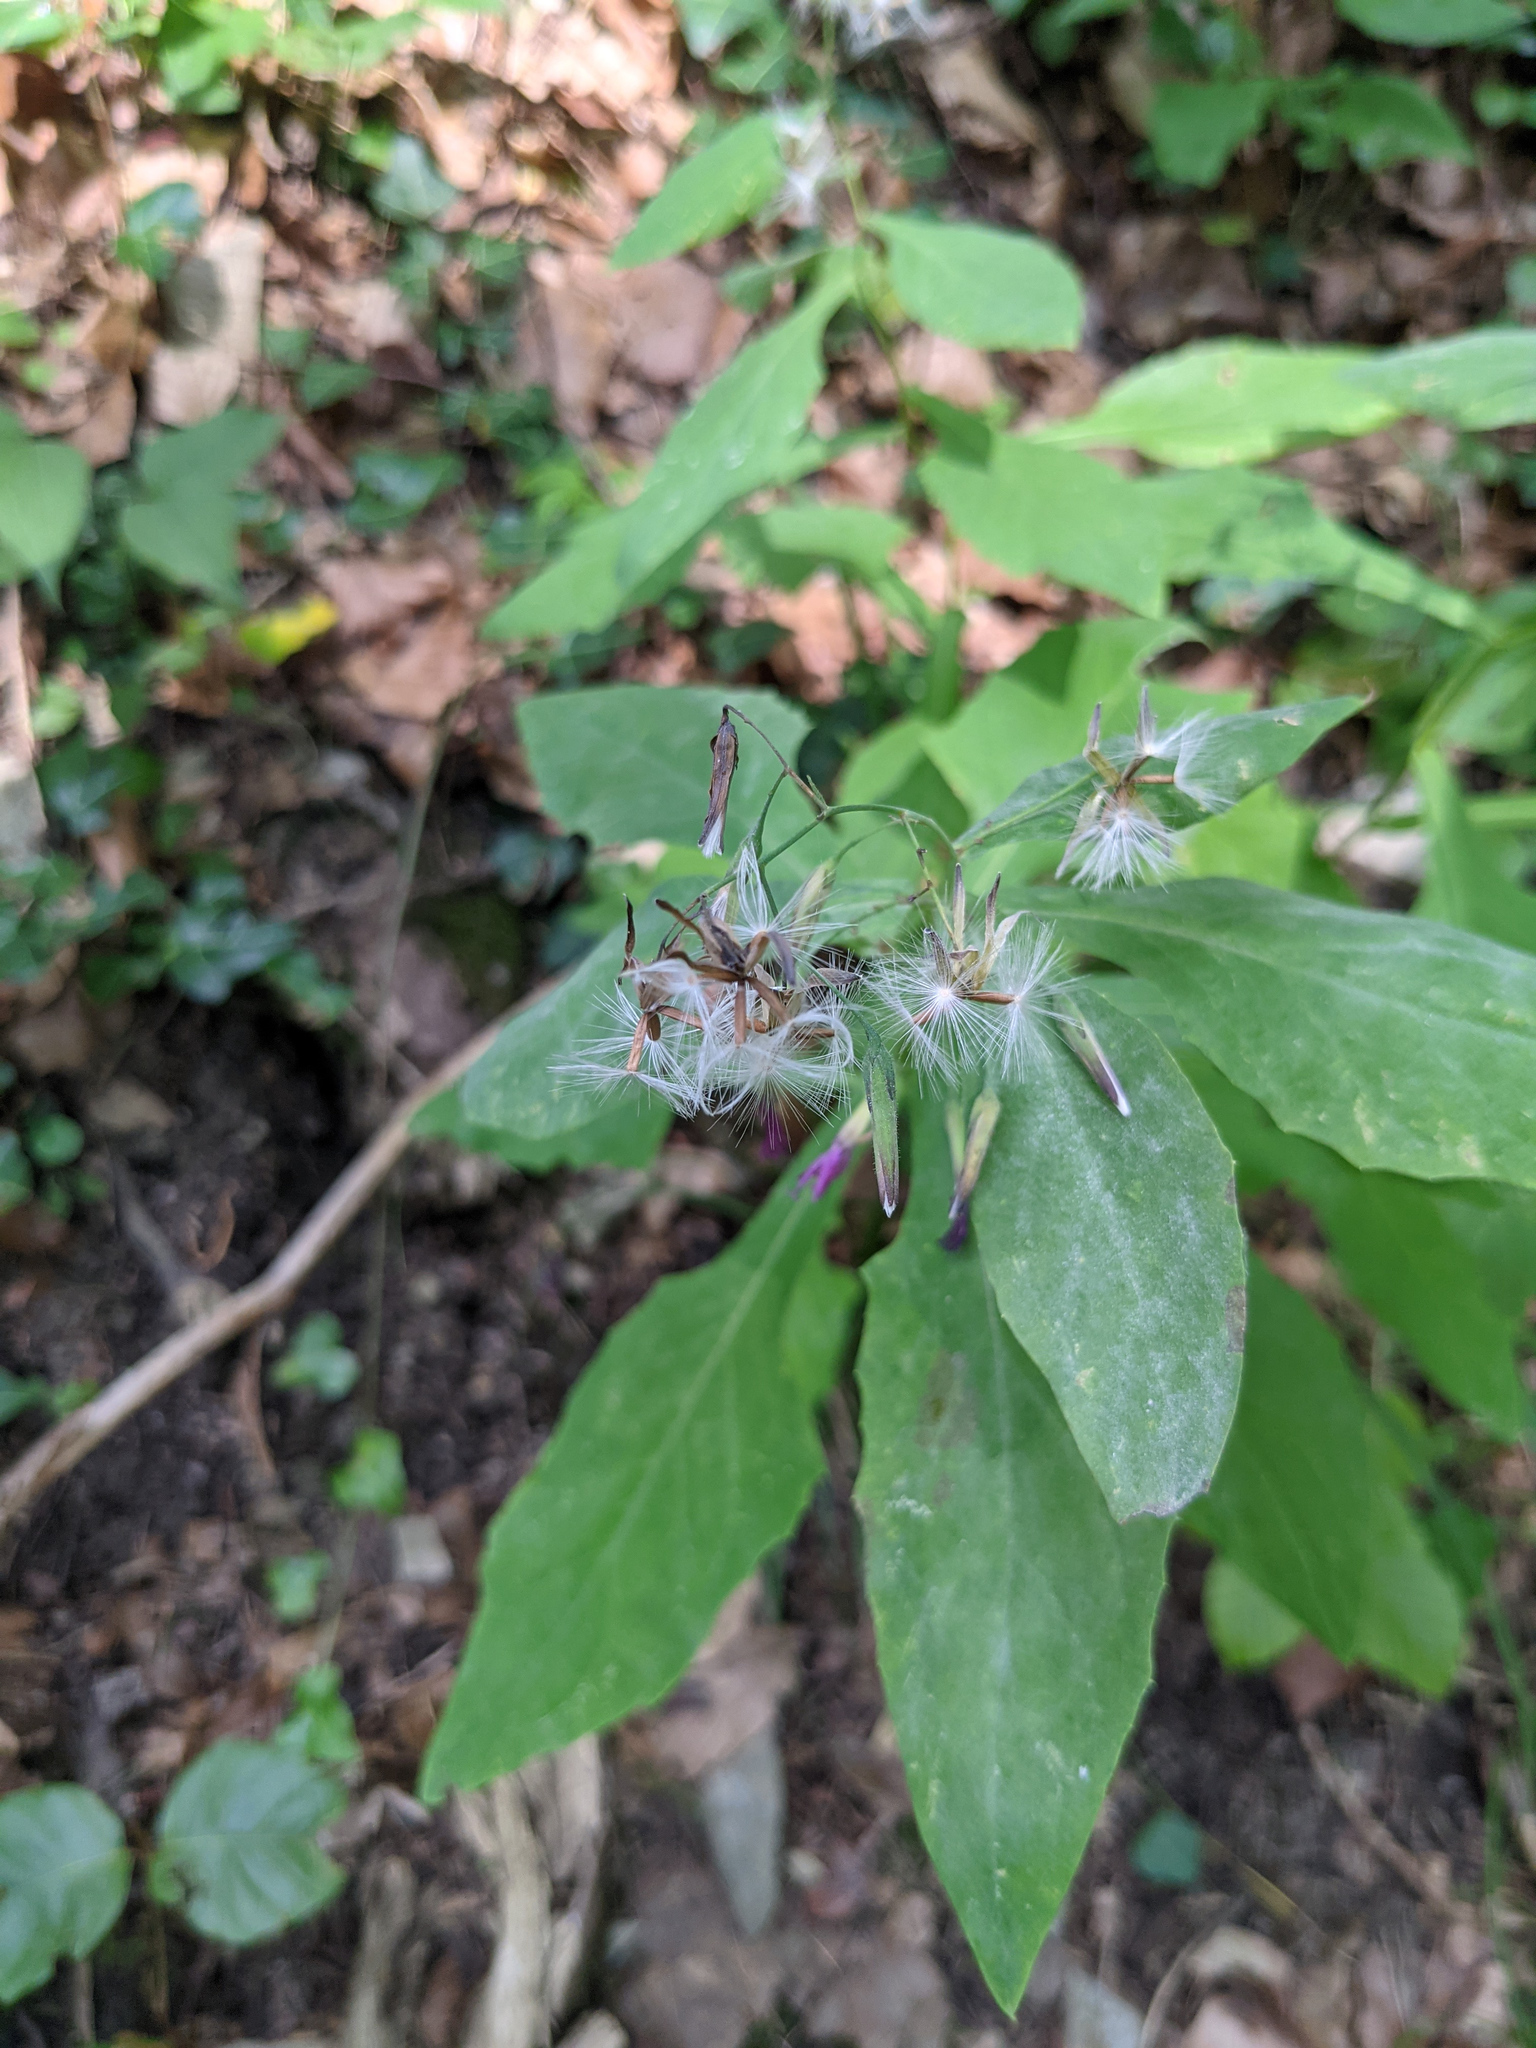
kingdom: Plantae
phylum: Tracheophyta
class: Magnoliopsida
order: Asterales
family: Asteraceae
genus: Prenanthes
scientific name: Prenanthes purpurea
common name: Purple lettuce
